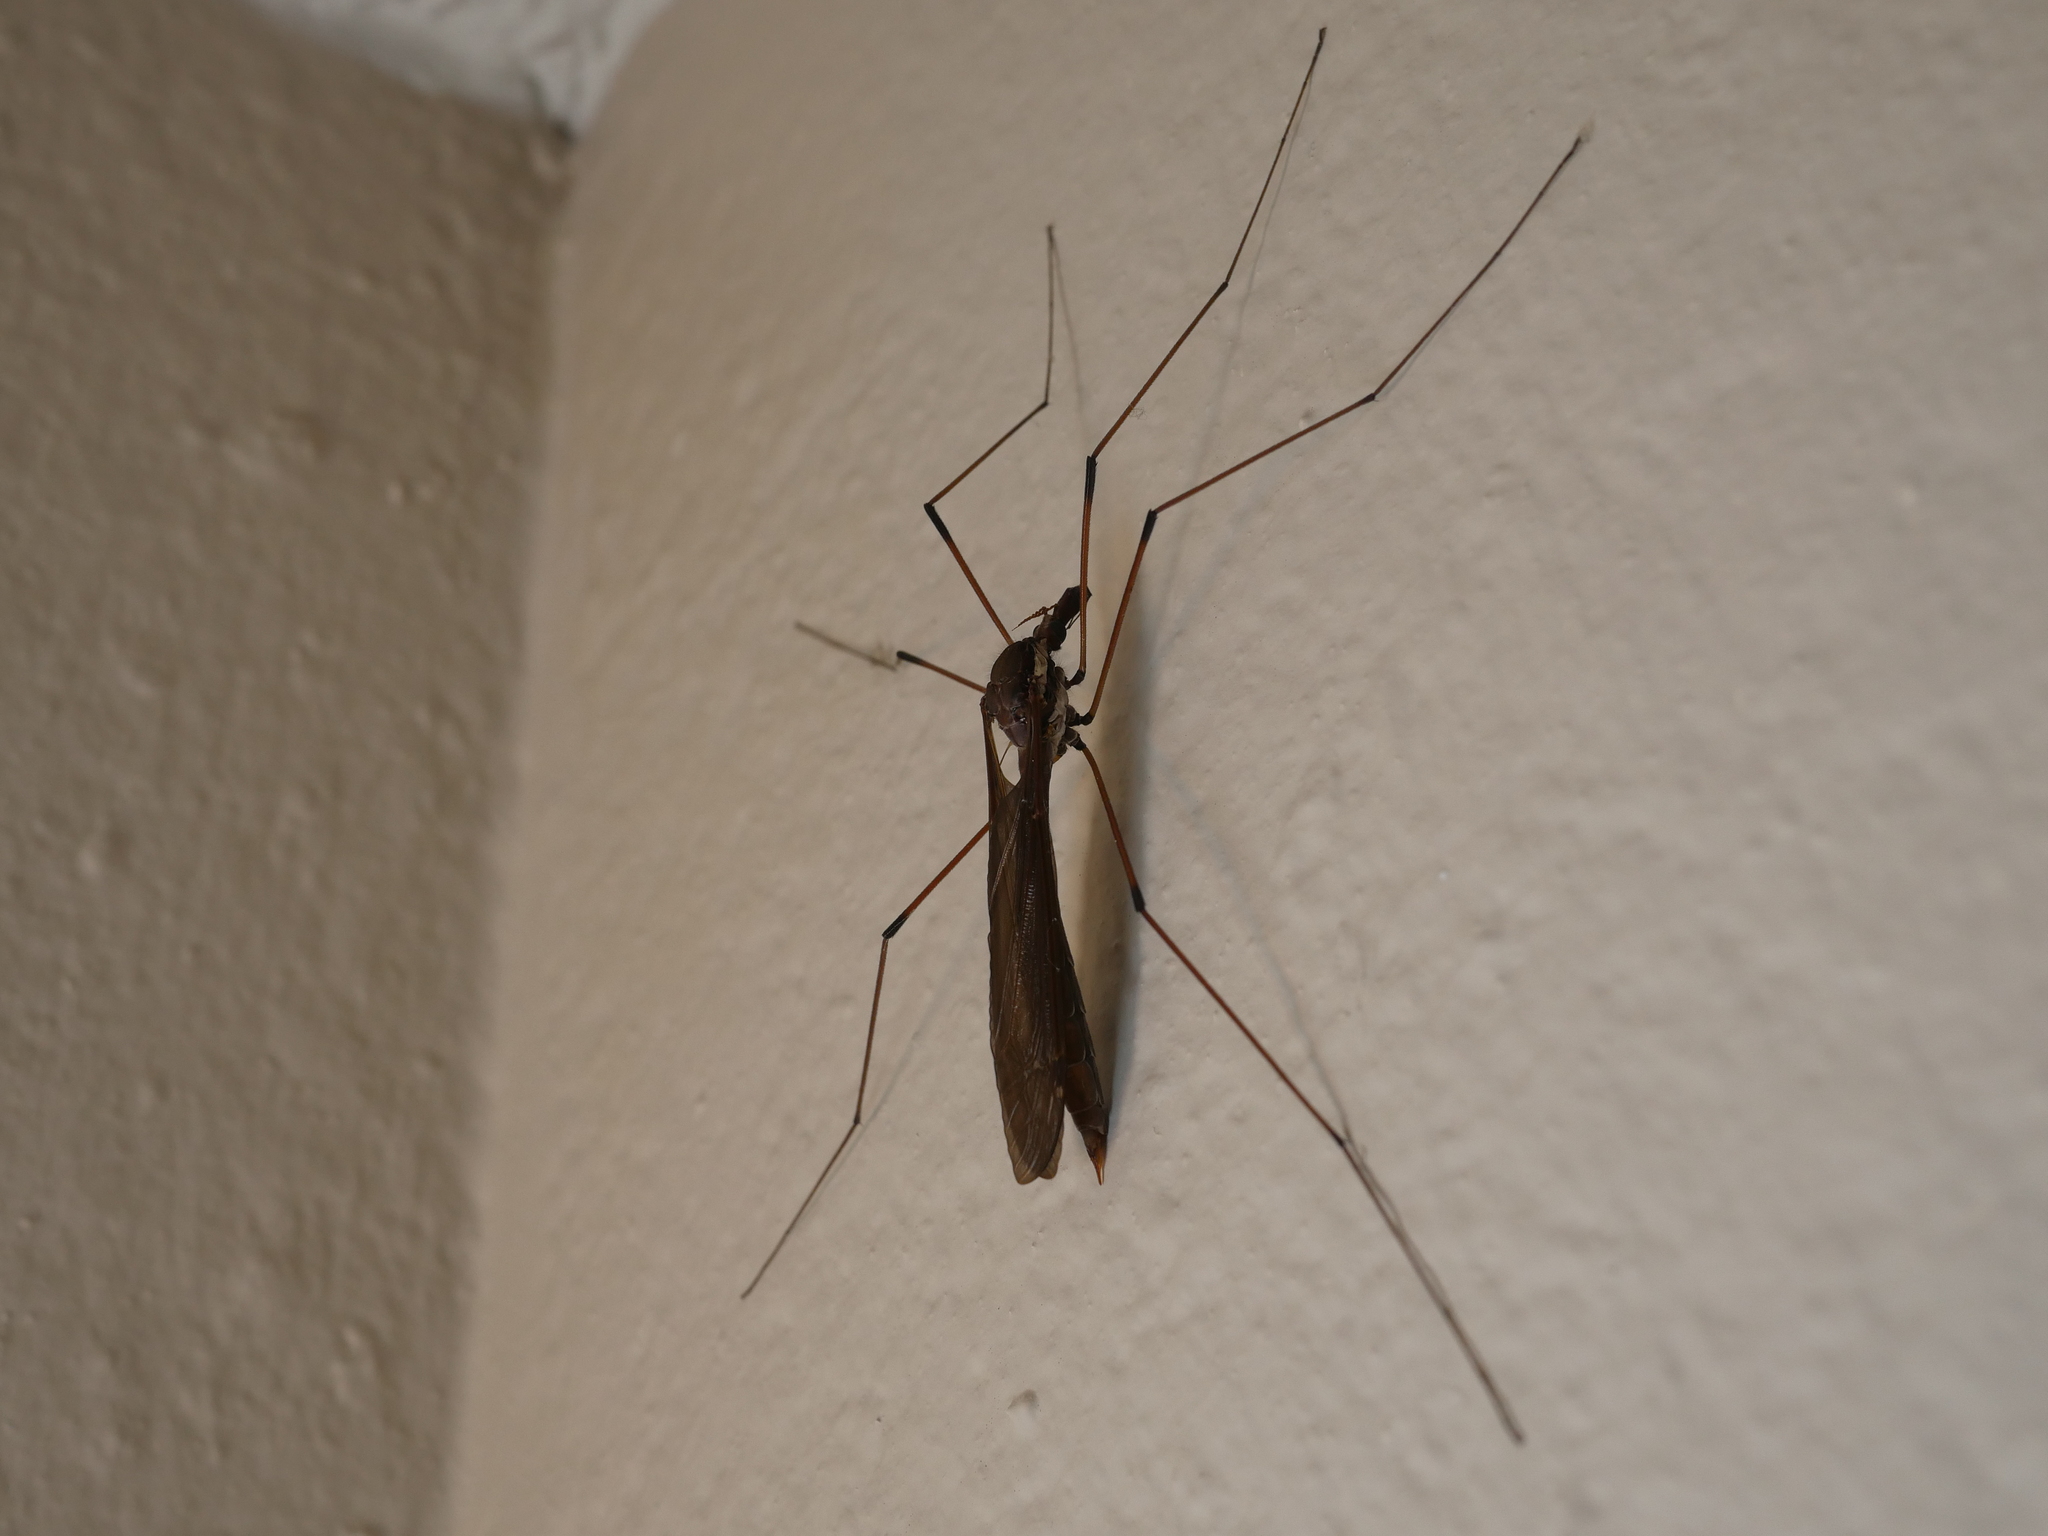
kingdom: Animalia
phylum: Arthropoda
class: Insecta
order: Diptera
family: Tipulidae
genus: Holorusia
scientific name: Holorusia hespera
